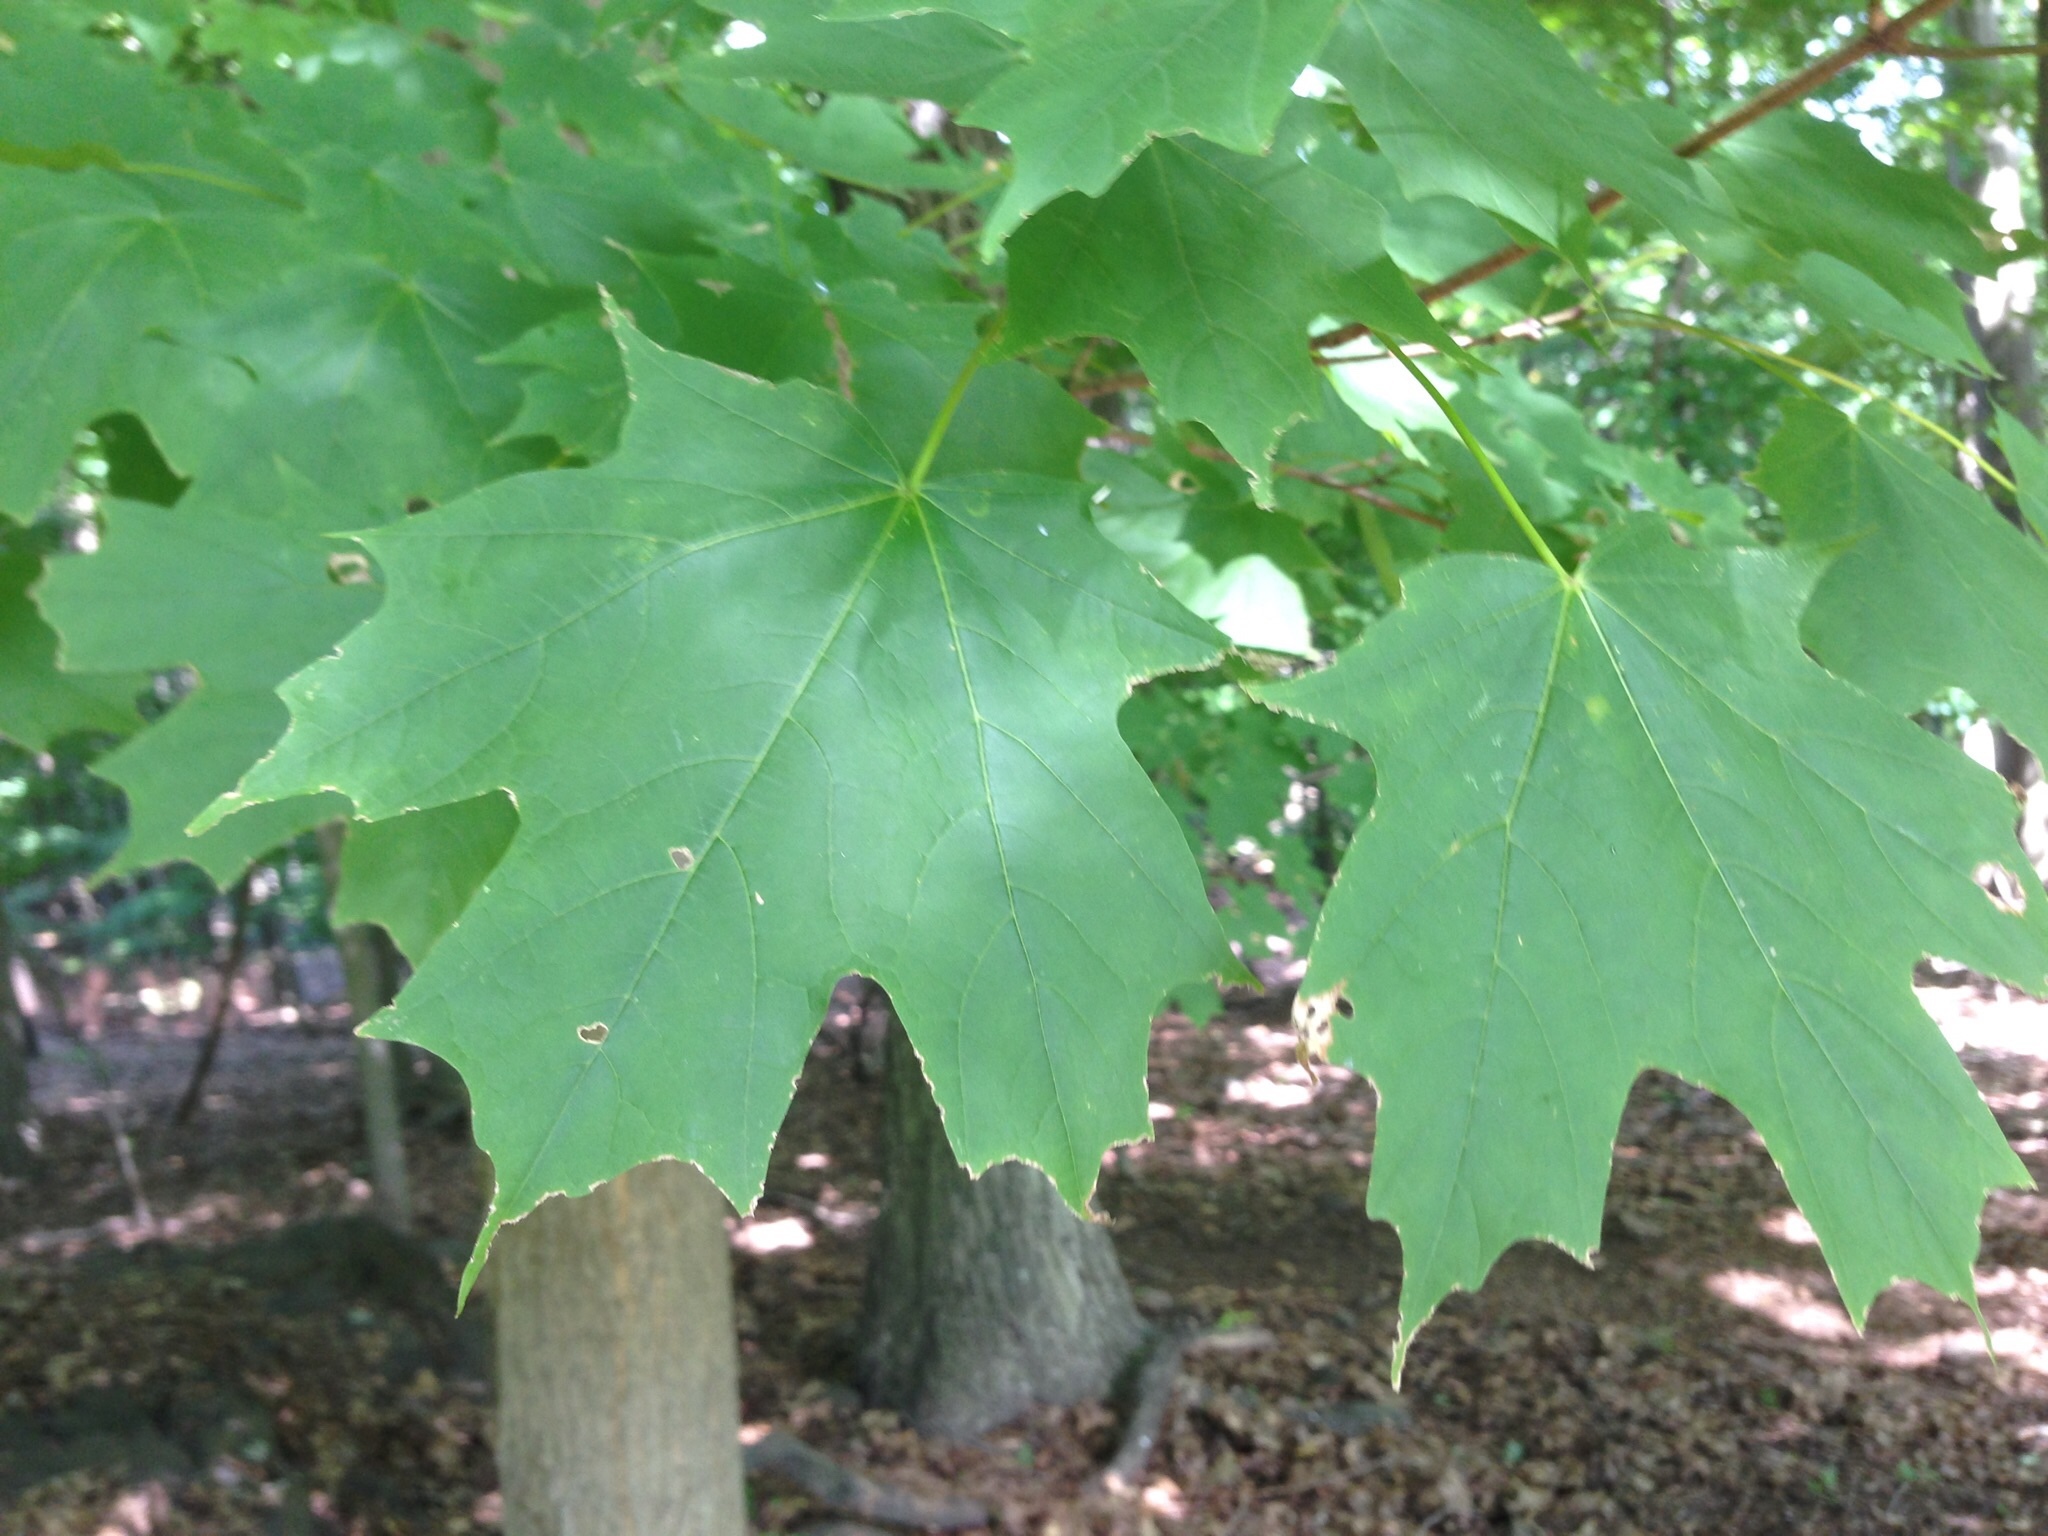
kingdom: Plantae
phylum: Tracheophyta
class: Magnoliopsida
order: Sapindales
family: Sapindaceae
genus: Acer
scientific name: Acer saccharum
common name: Sugar maple
